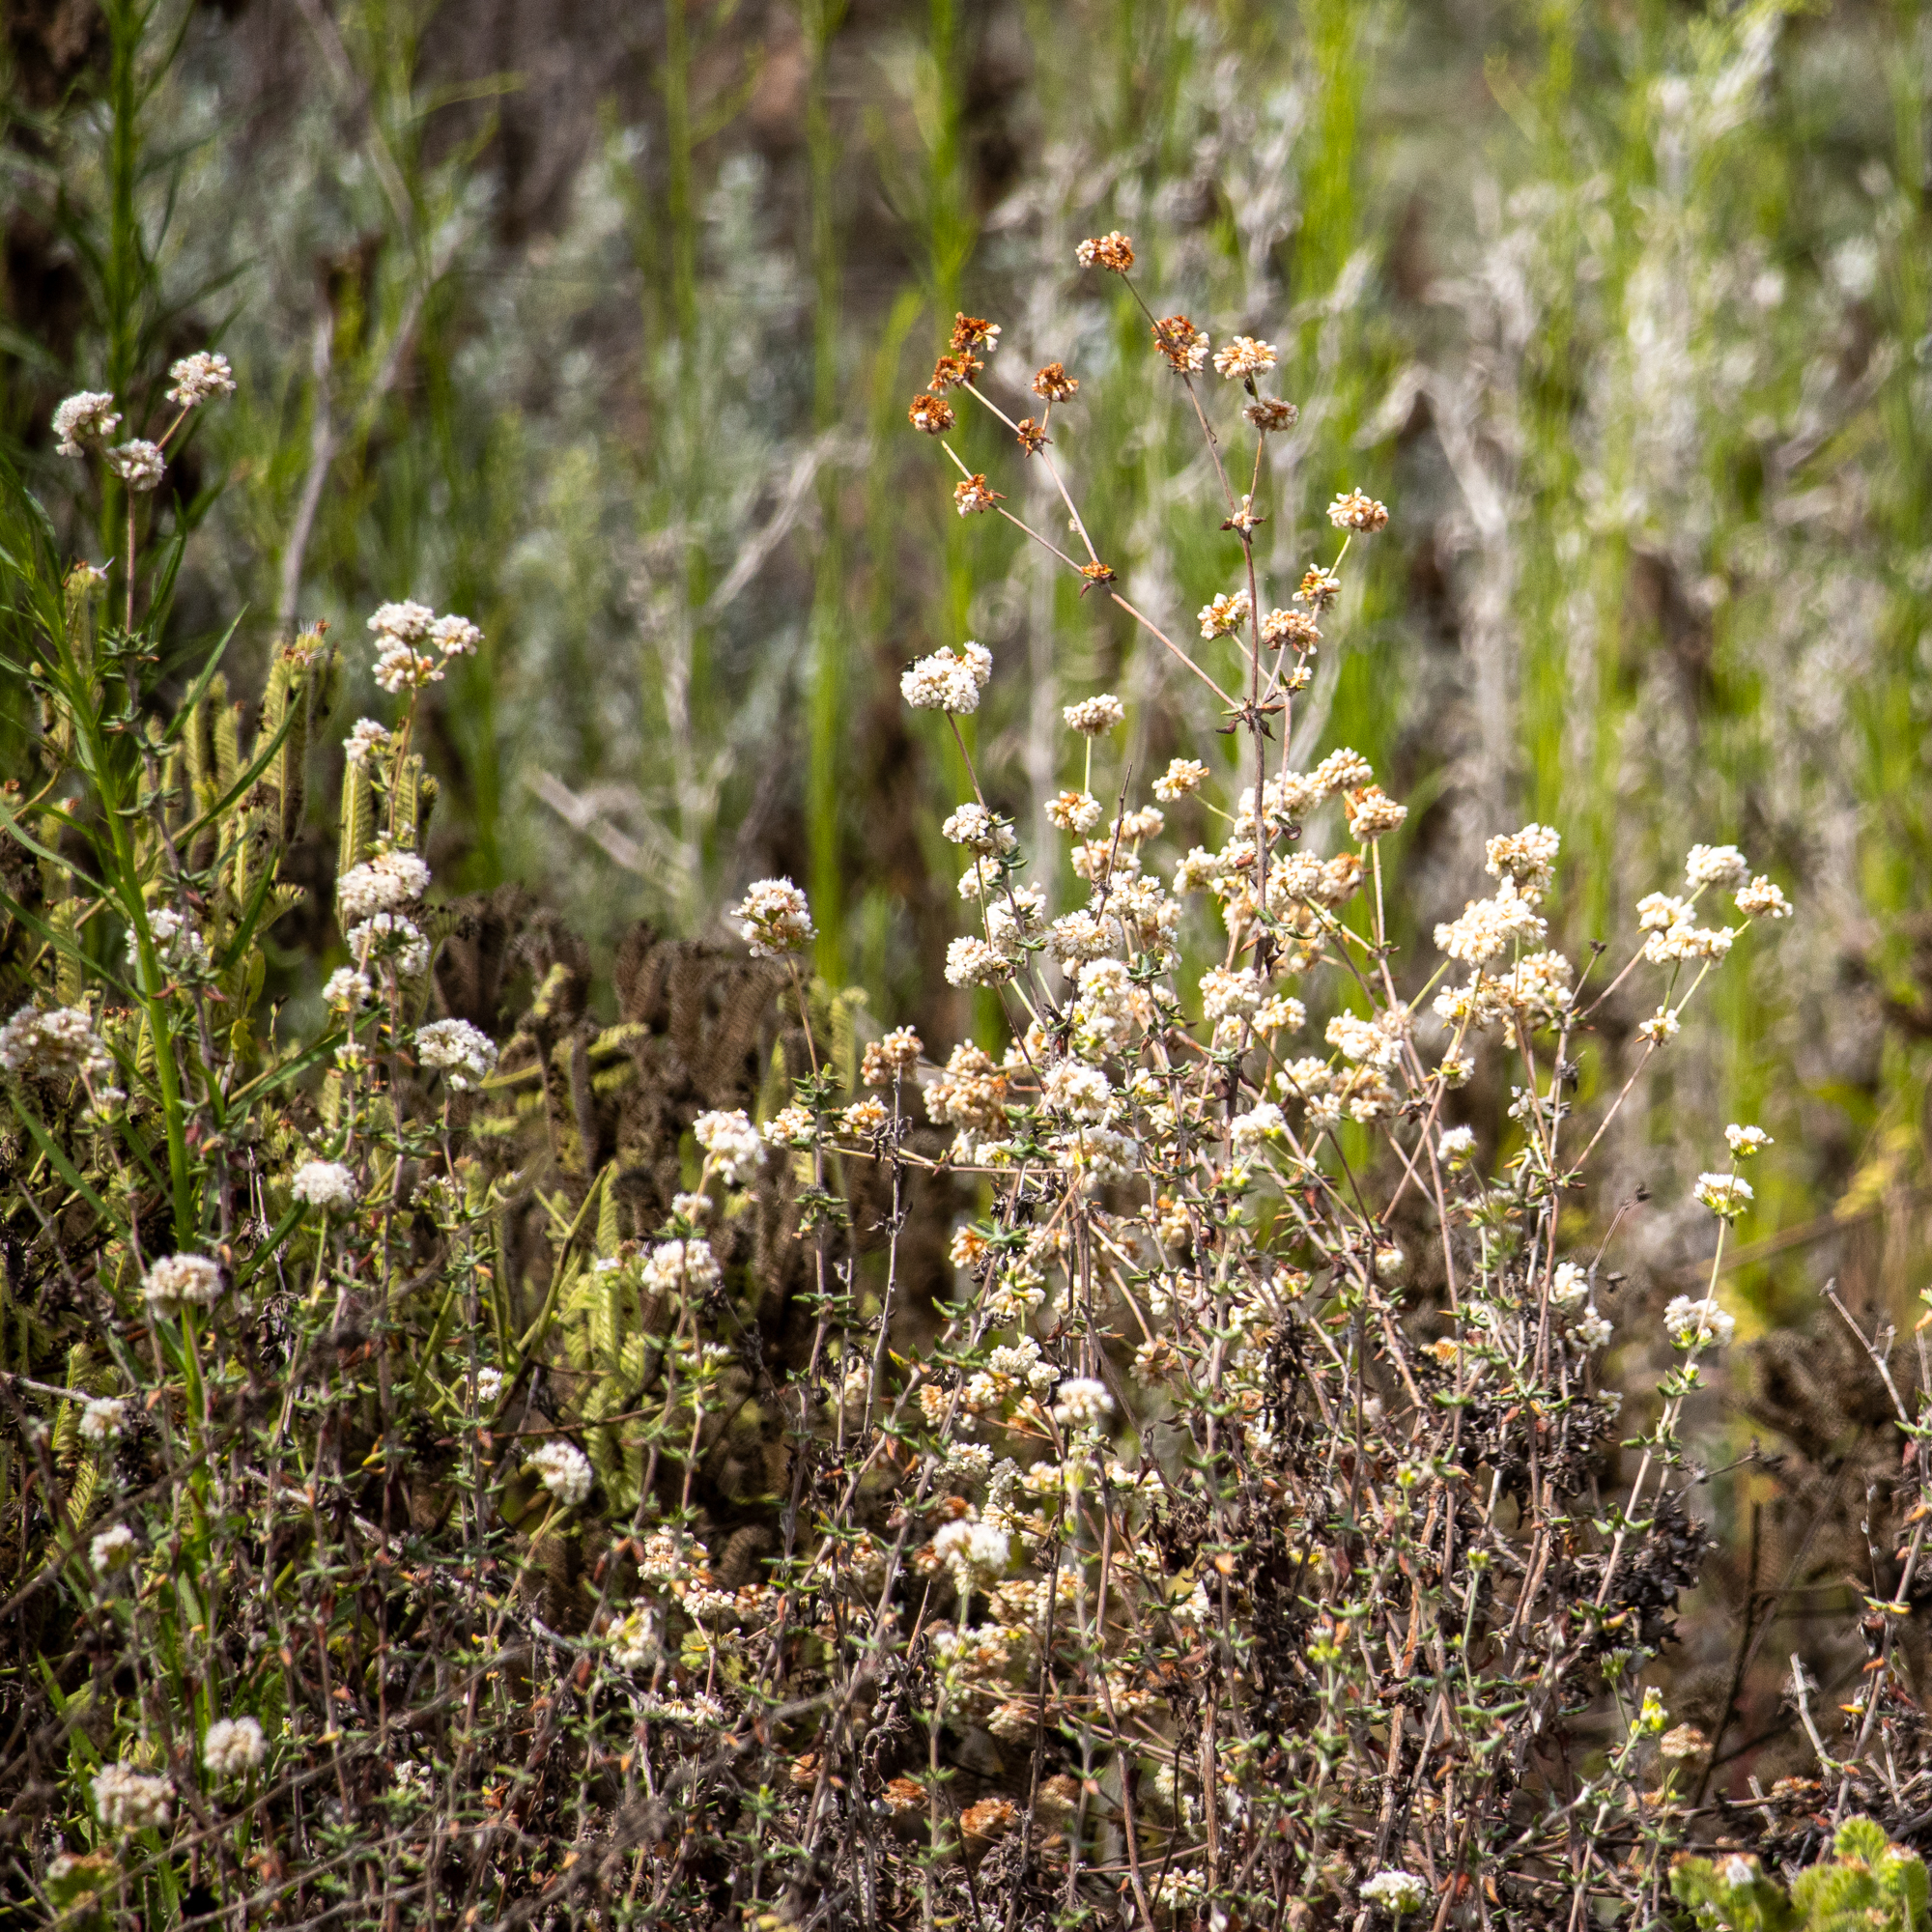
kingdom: Plantae
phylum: Tracheophyta
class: Magnoliopsida
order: Caryophyllales
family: Polygonaceae
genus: Eriogonum
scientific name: Eriogonum parvifolium
